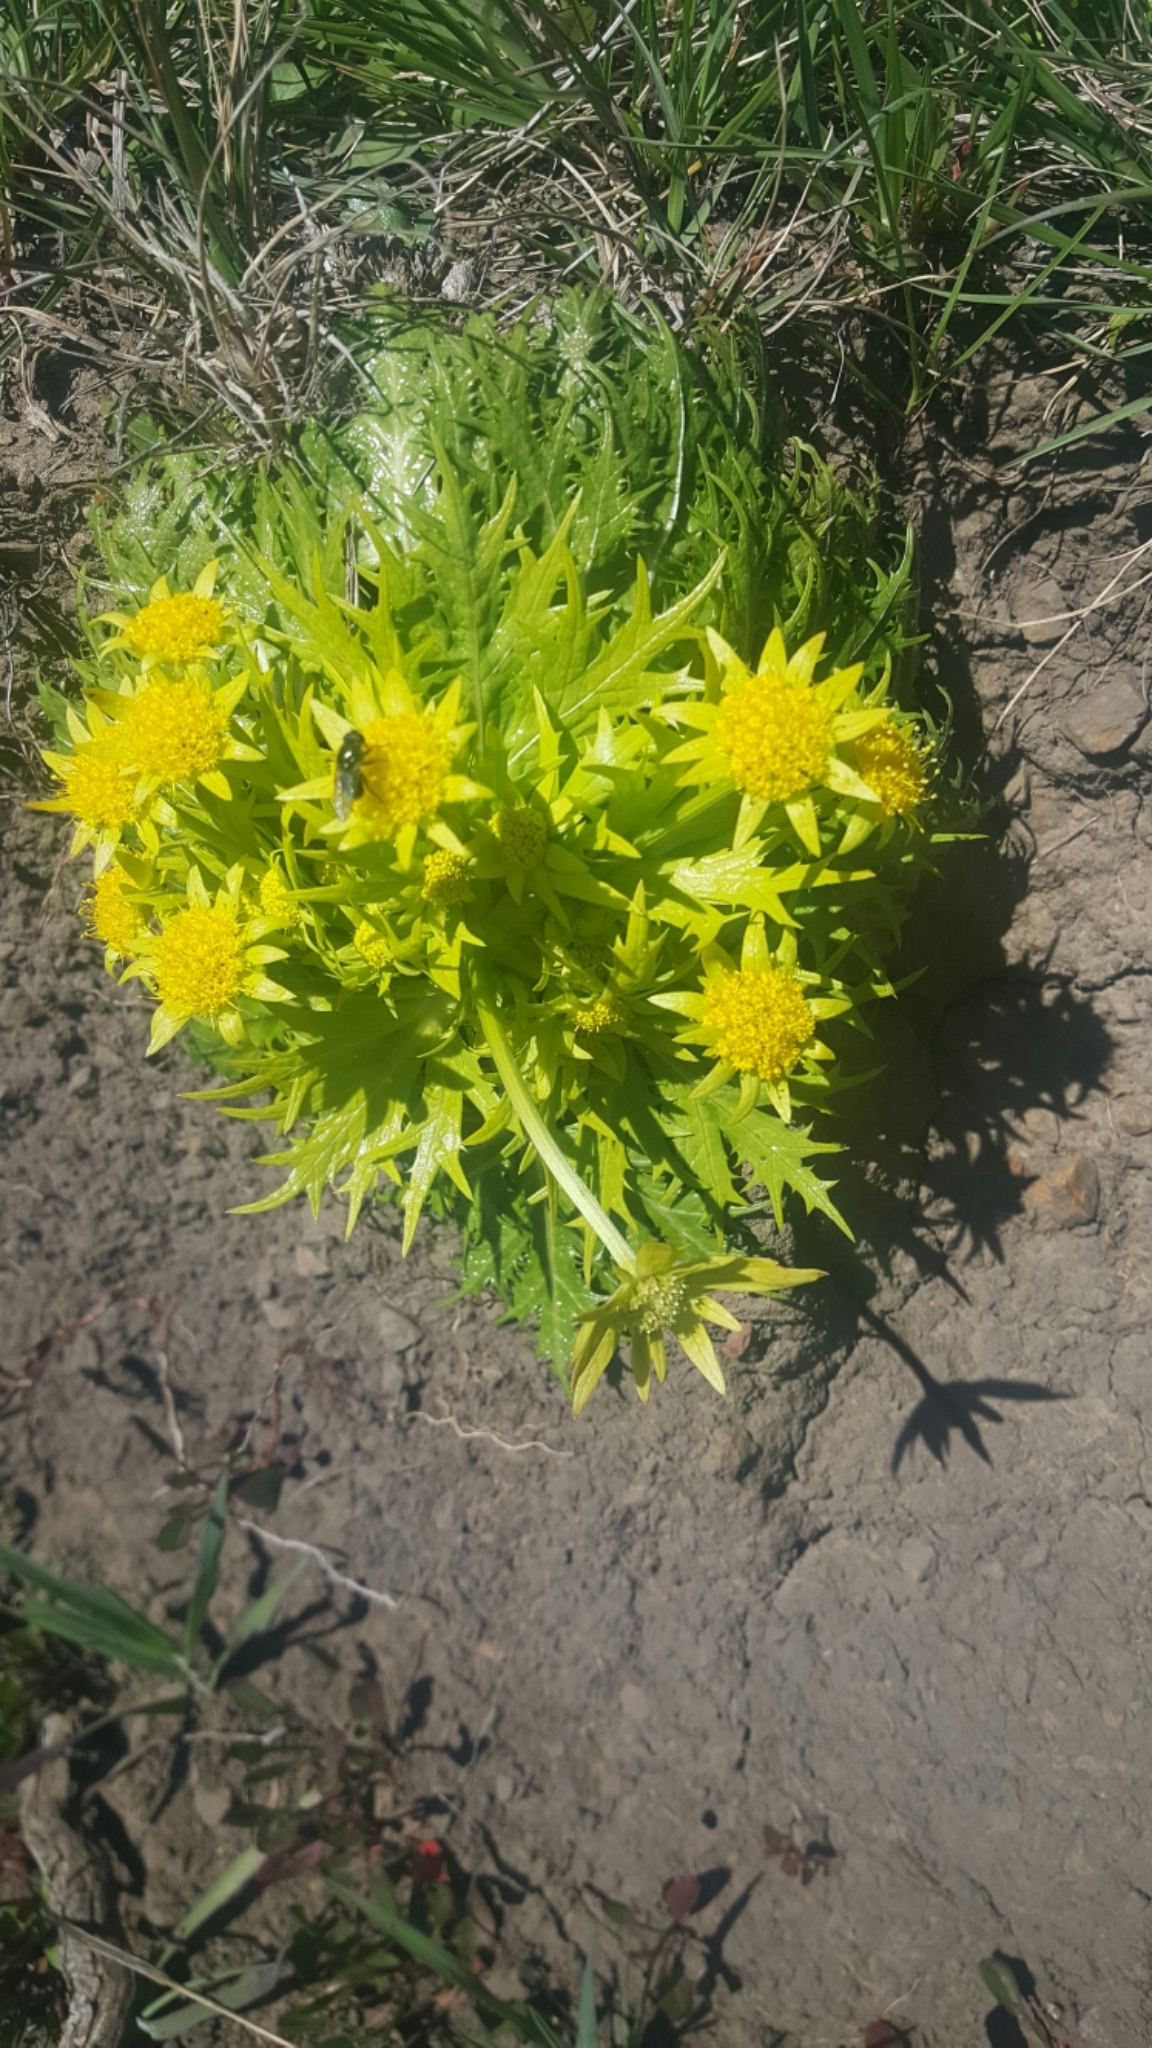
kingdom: Plantae
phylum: Tracheophyta
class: Magnoliopsida
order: Apiales
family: Apiaceae
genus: Sanicula
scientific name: Sanicula arctopoides
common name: Footsteps-of-spring
